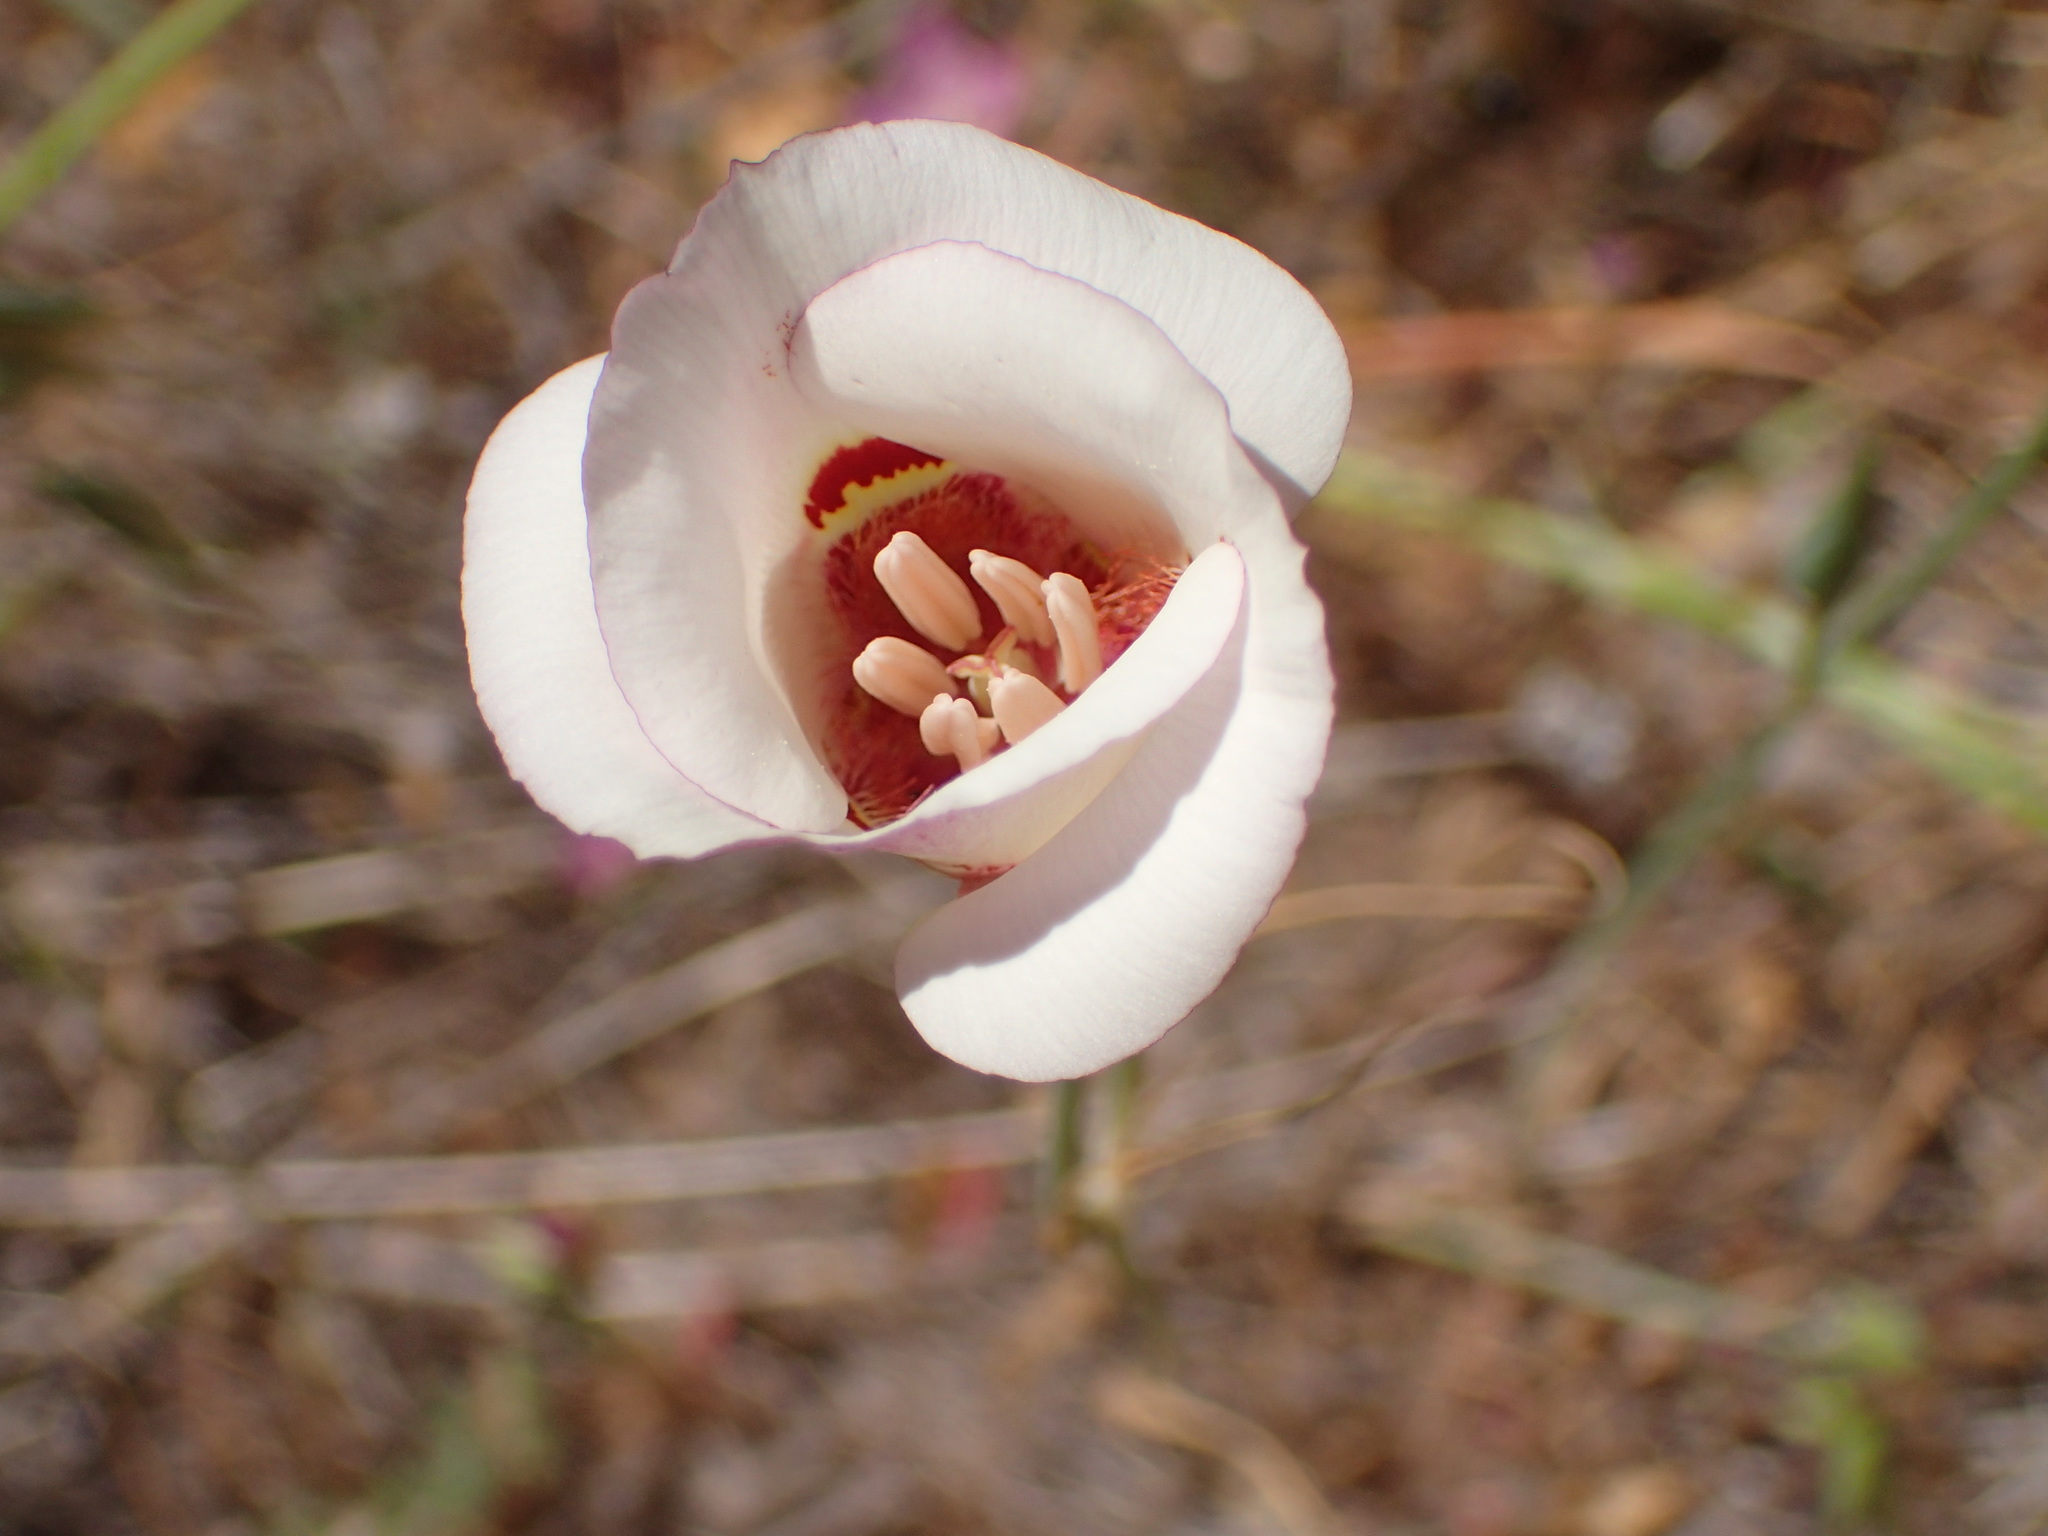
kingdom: Plantae
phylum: Tracheophyta
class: Liliopsida
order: Liliales
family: Liliaceae
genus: Calochortus
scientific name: Calochortus venustus
